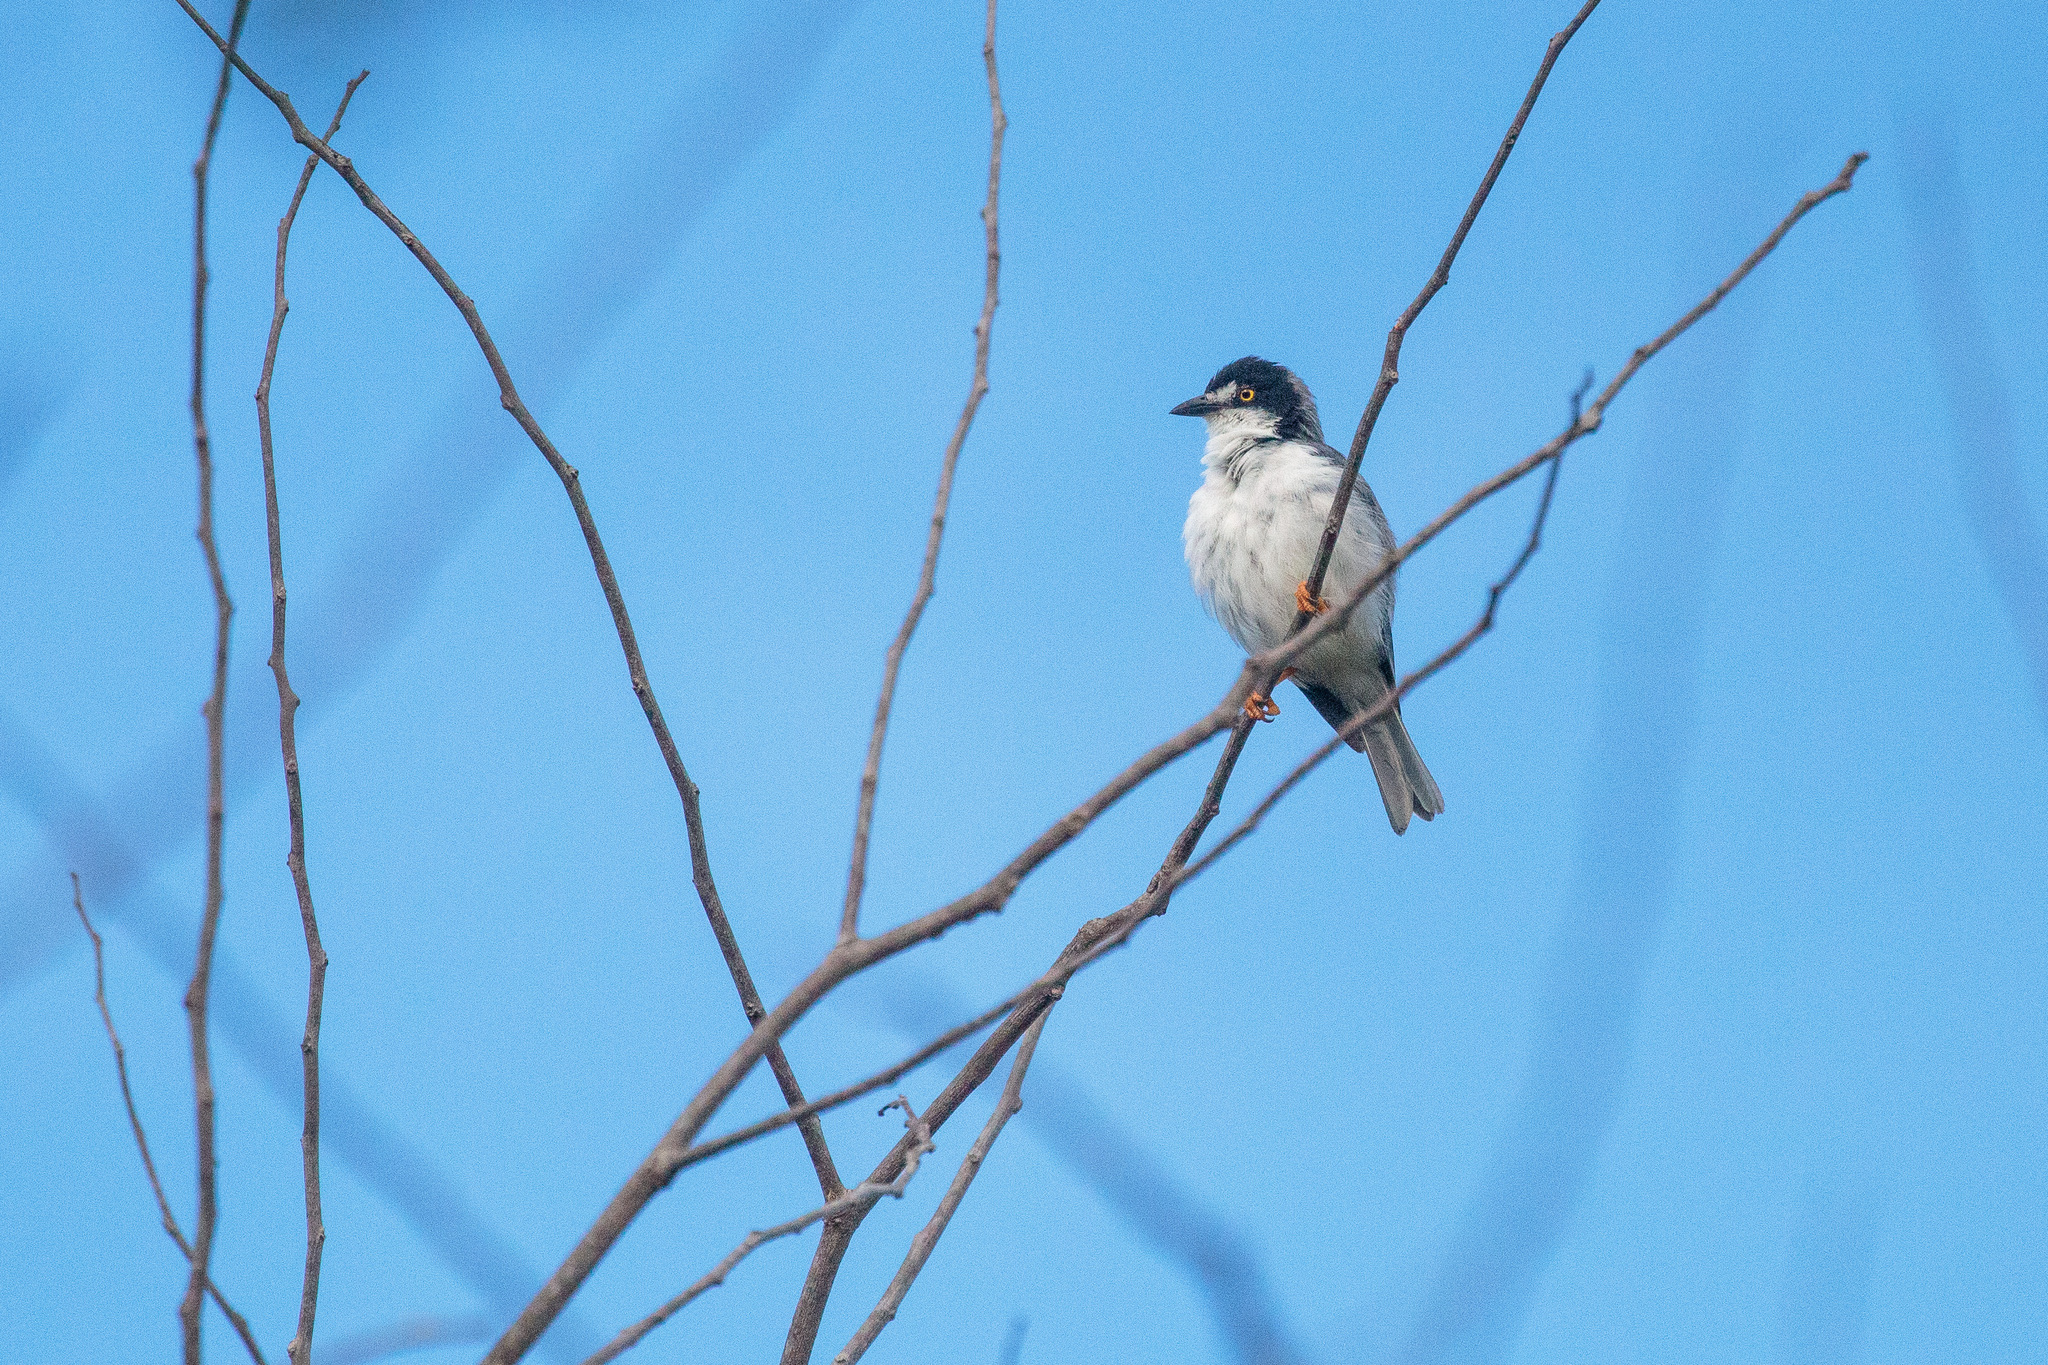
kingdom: Animalia
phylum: Chordata
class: Aves
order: Passeriformes
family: Thraupidae
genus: Nemosia
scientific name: Nemosia pileata
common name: Hooded tanager
